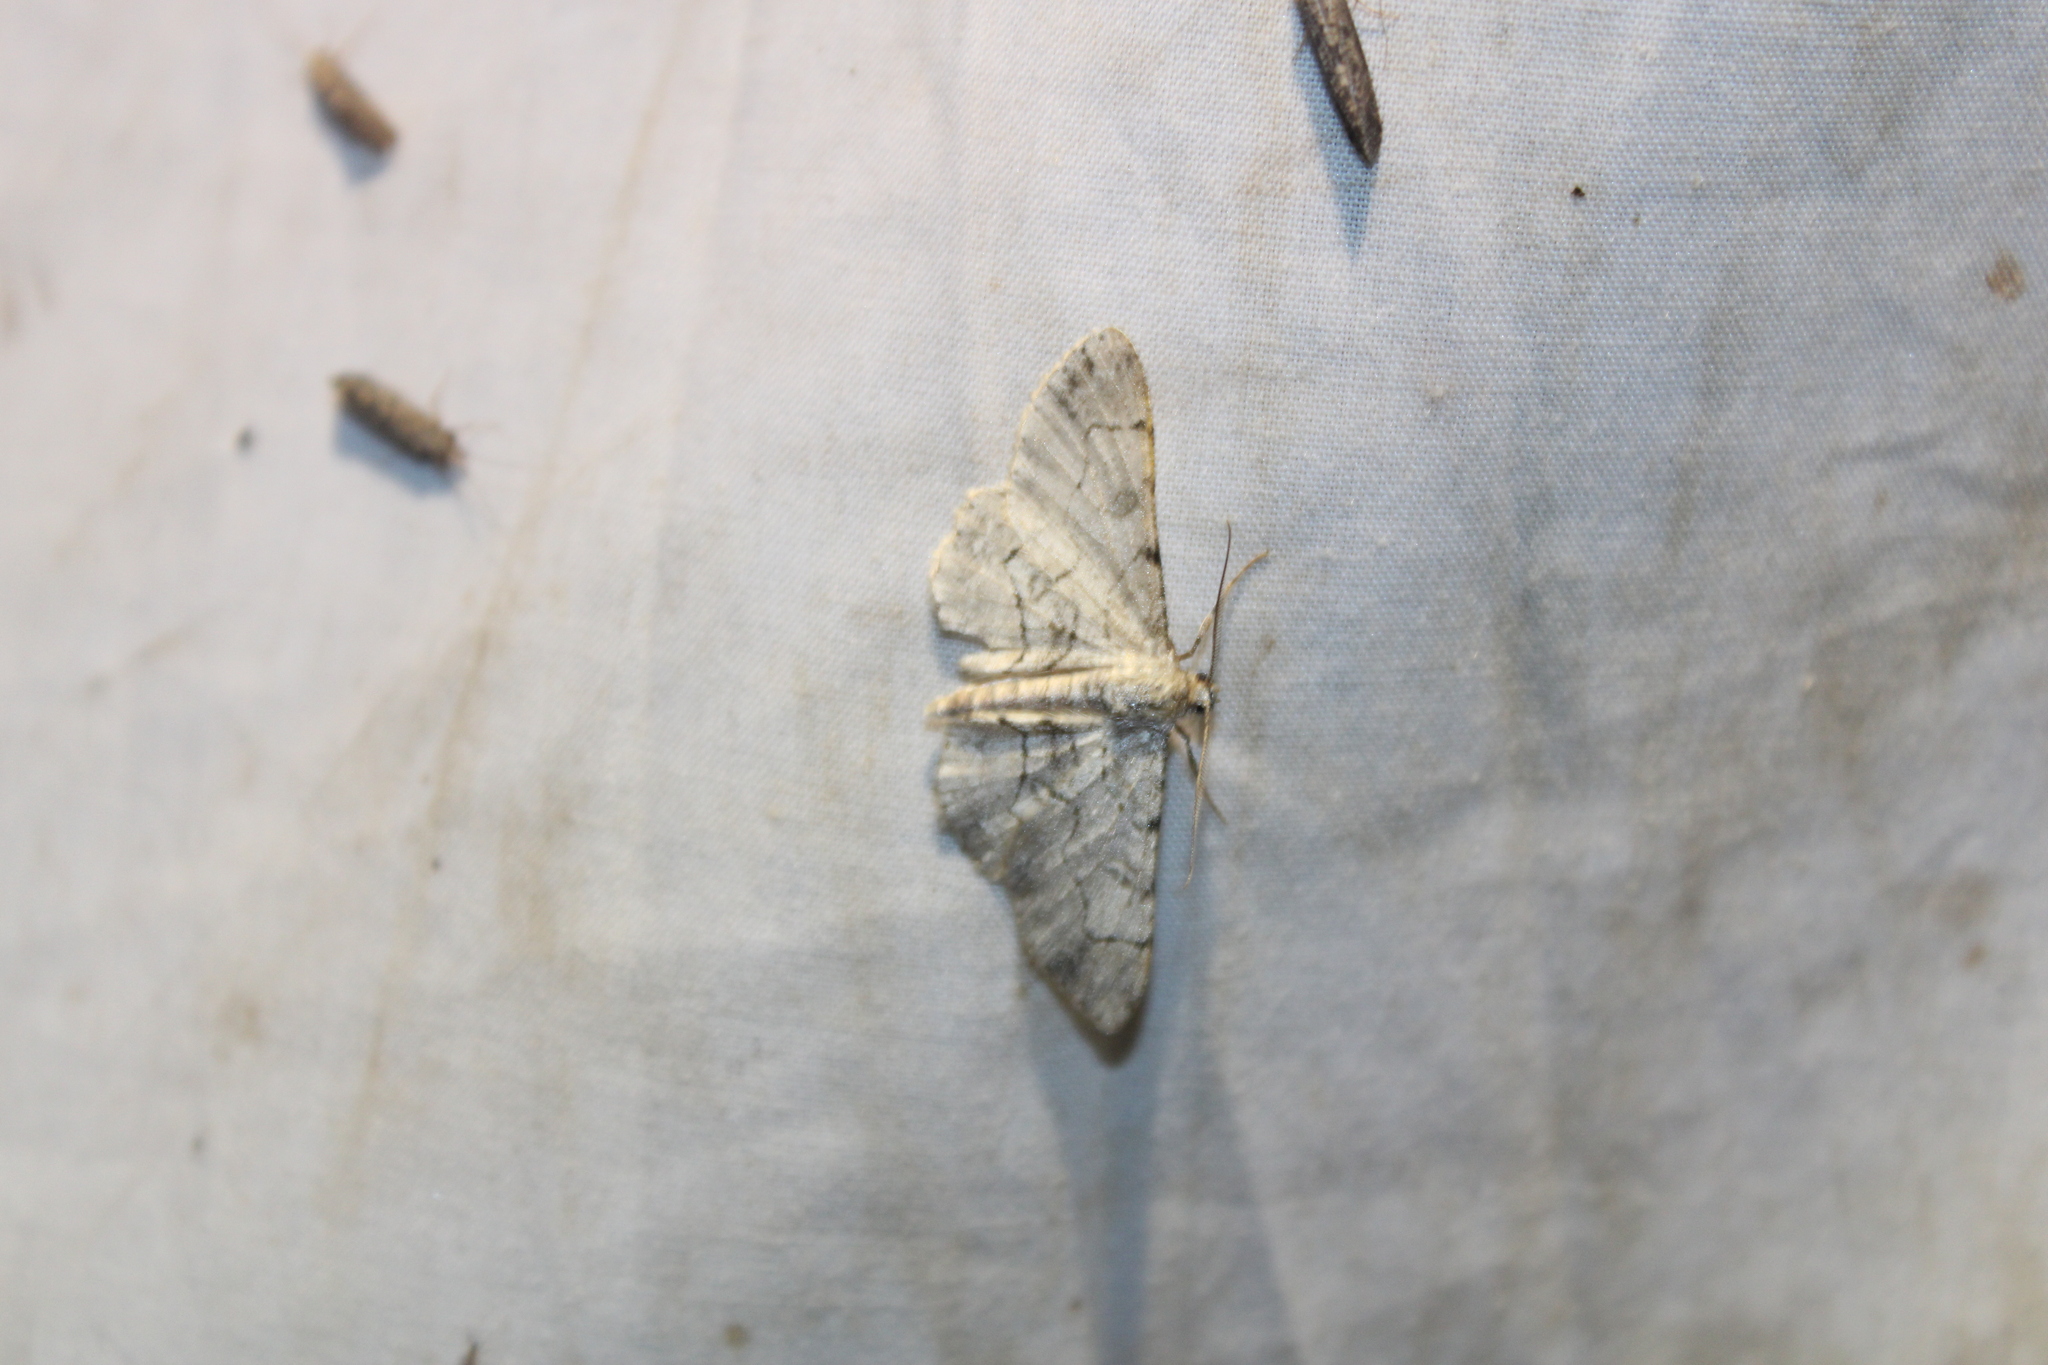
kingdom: Animalia
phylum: Arthropoda
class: Insecta
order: Lepidoptera
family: Geometridae
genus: Iridopsis
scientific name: Iridopsis larvaria
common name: Bent-line gray
